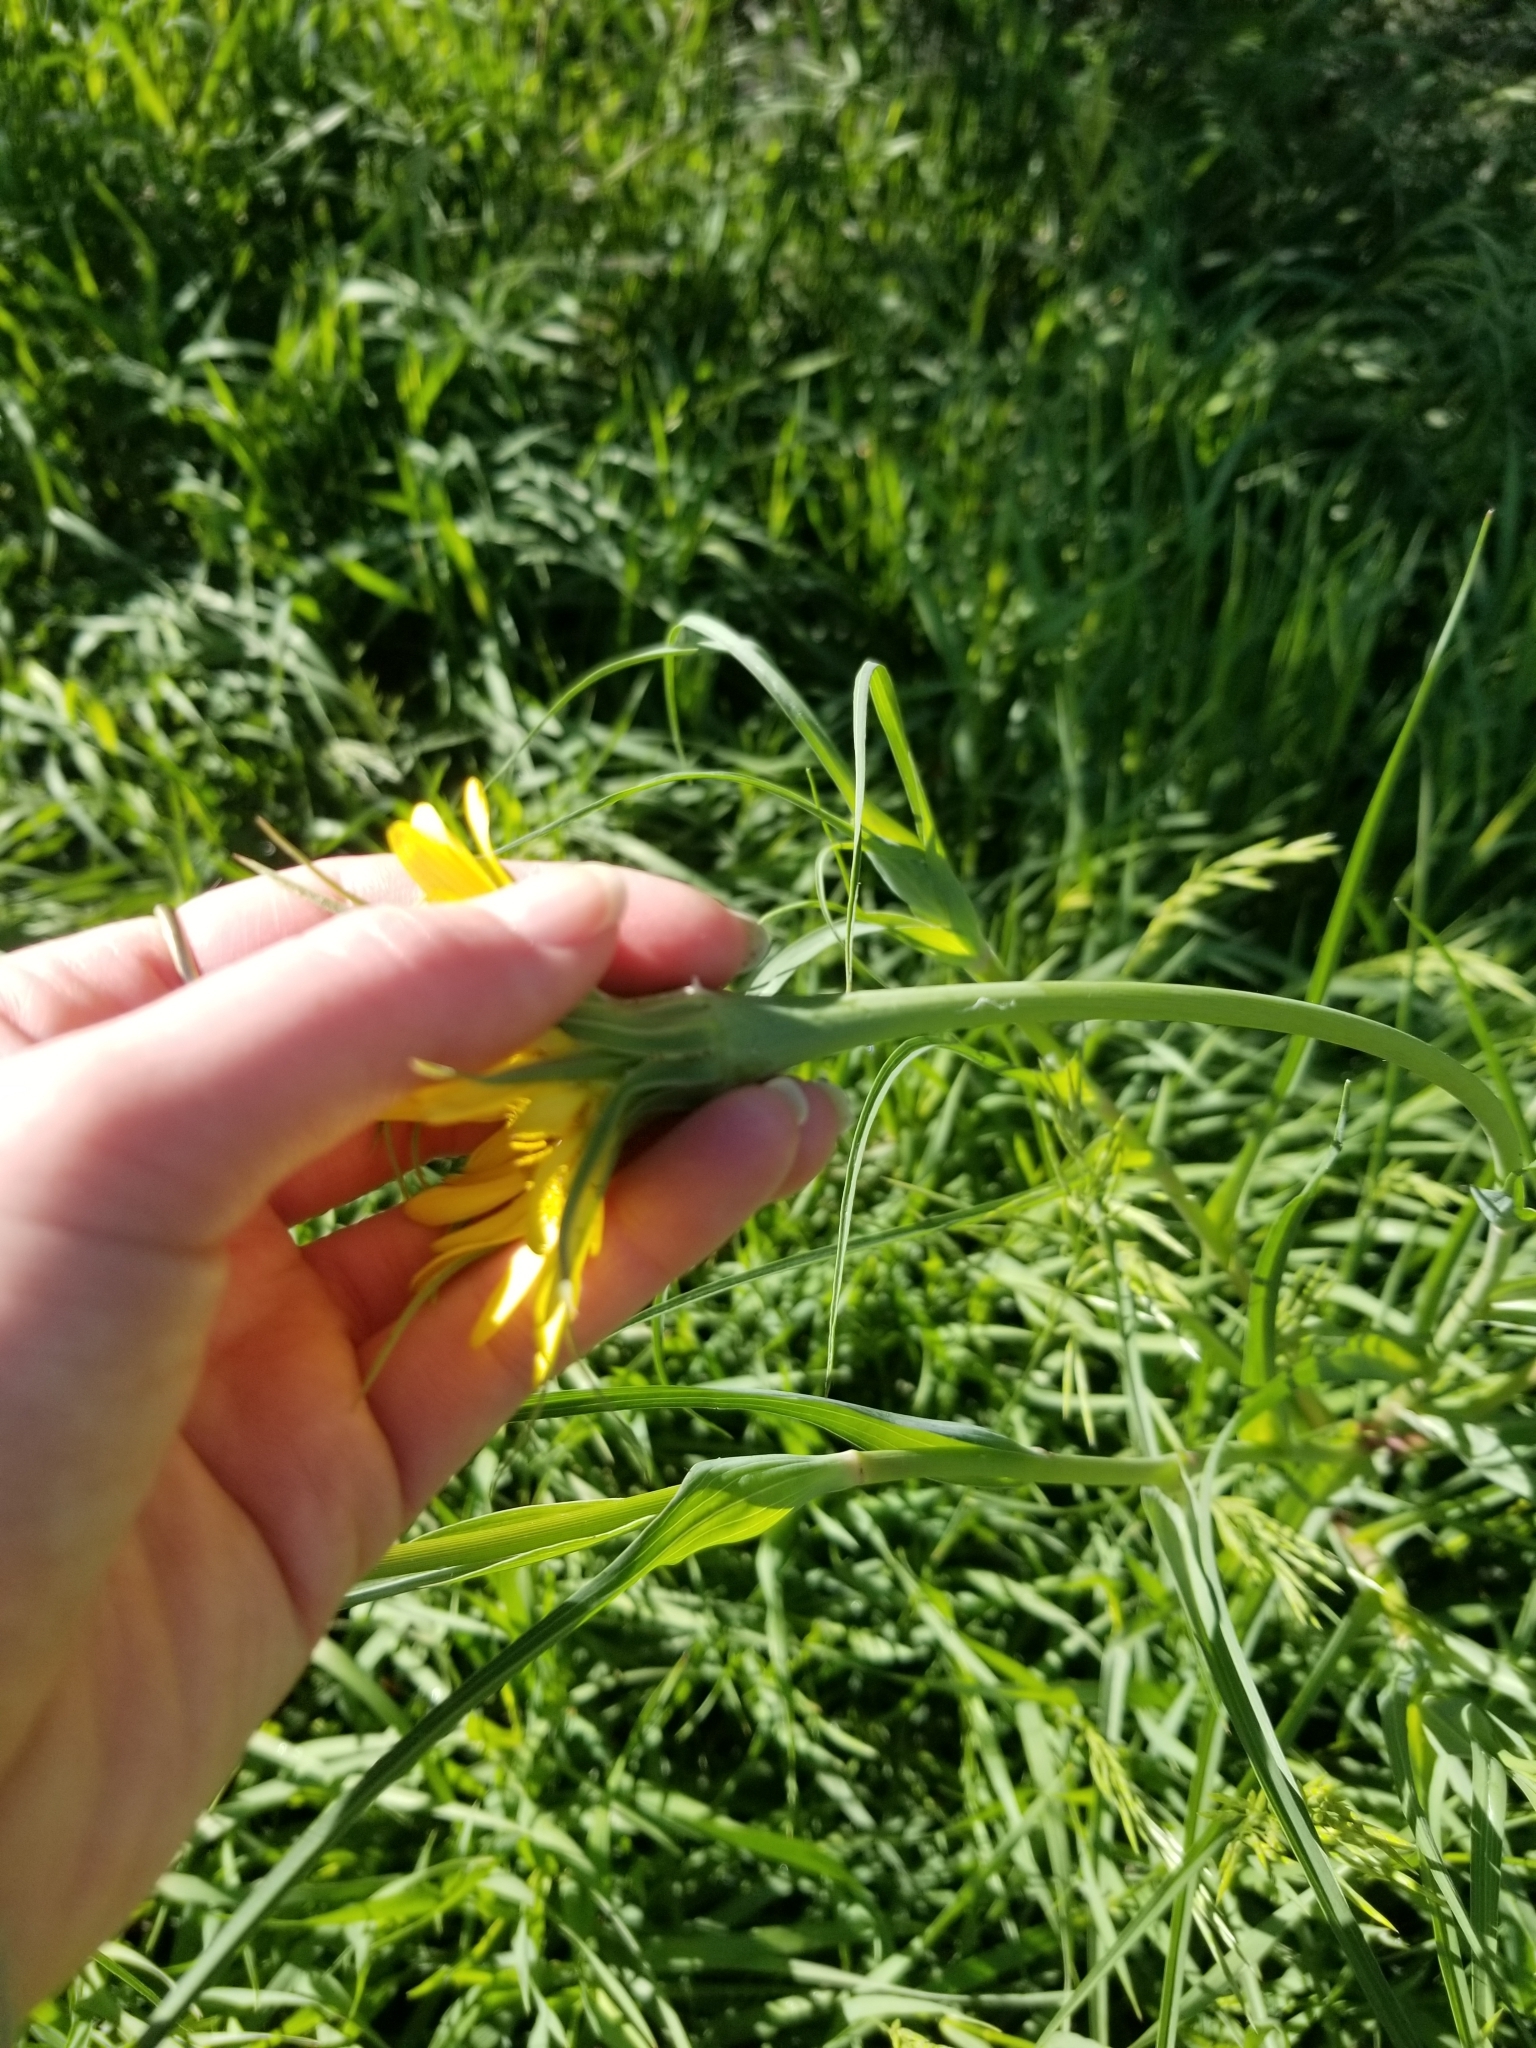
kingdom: Plantae
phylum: Tracheophyta
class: Magnoliopsida
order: Asterales
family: Asteraceae
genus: Tragopogon
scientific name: Tragopogon dubius
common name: Yellow salsify
